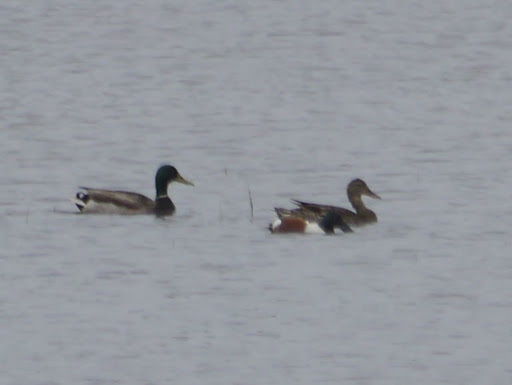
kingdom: Animalia
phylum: Chordata
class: Aves
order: Anseriformes
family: Anatidae
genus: Spatula
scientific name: Spatula clypeata
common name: Northern shoveler
